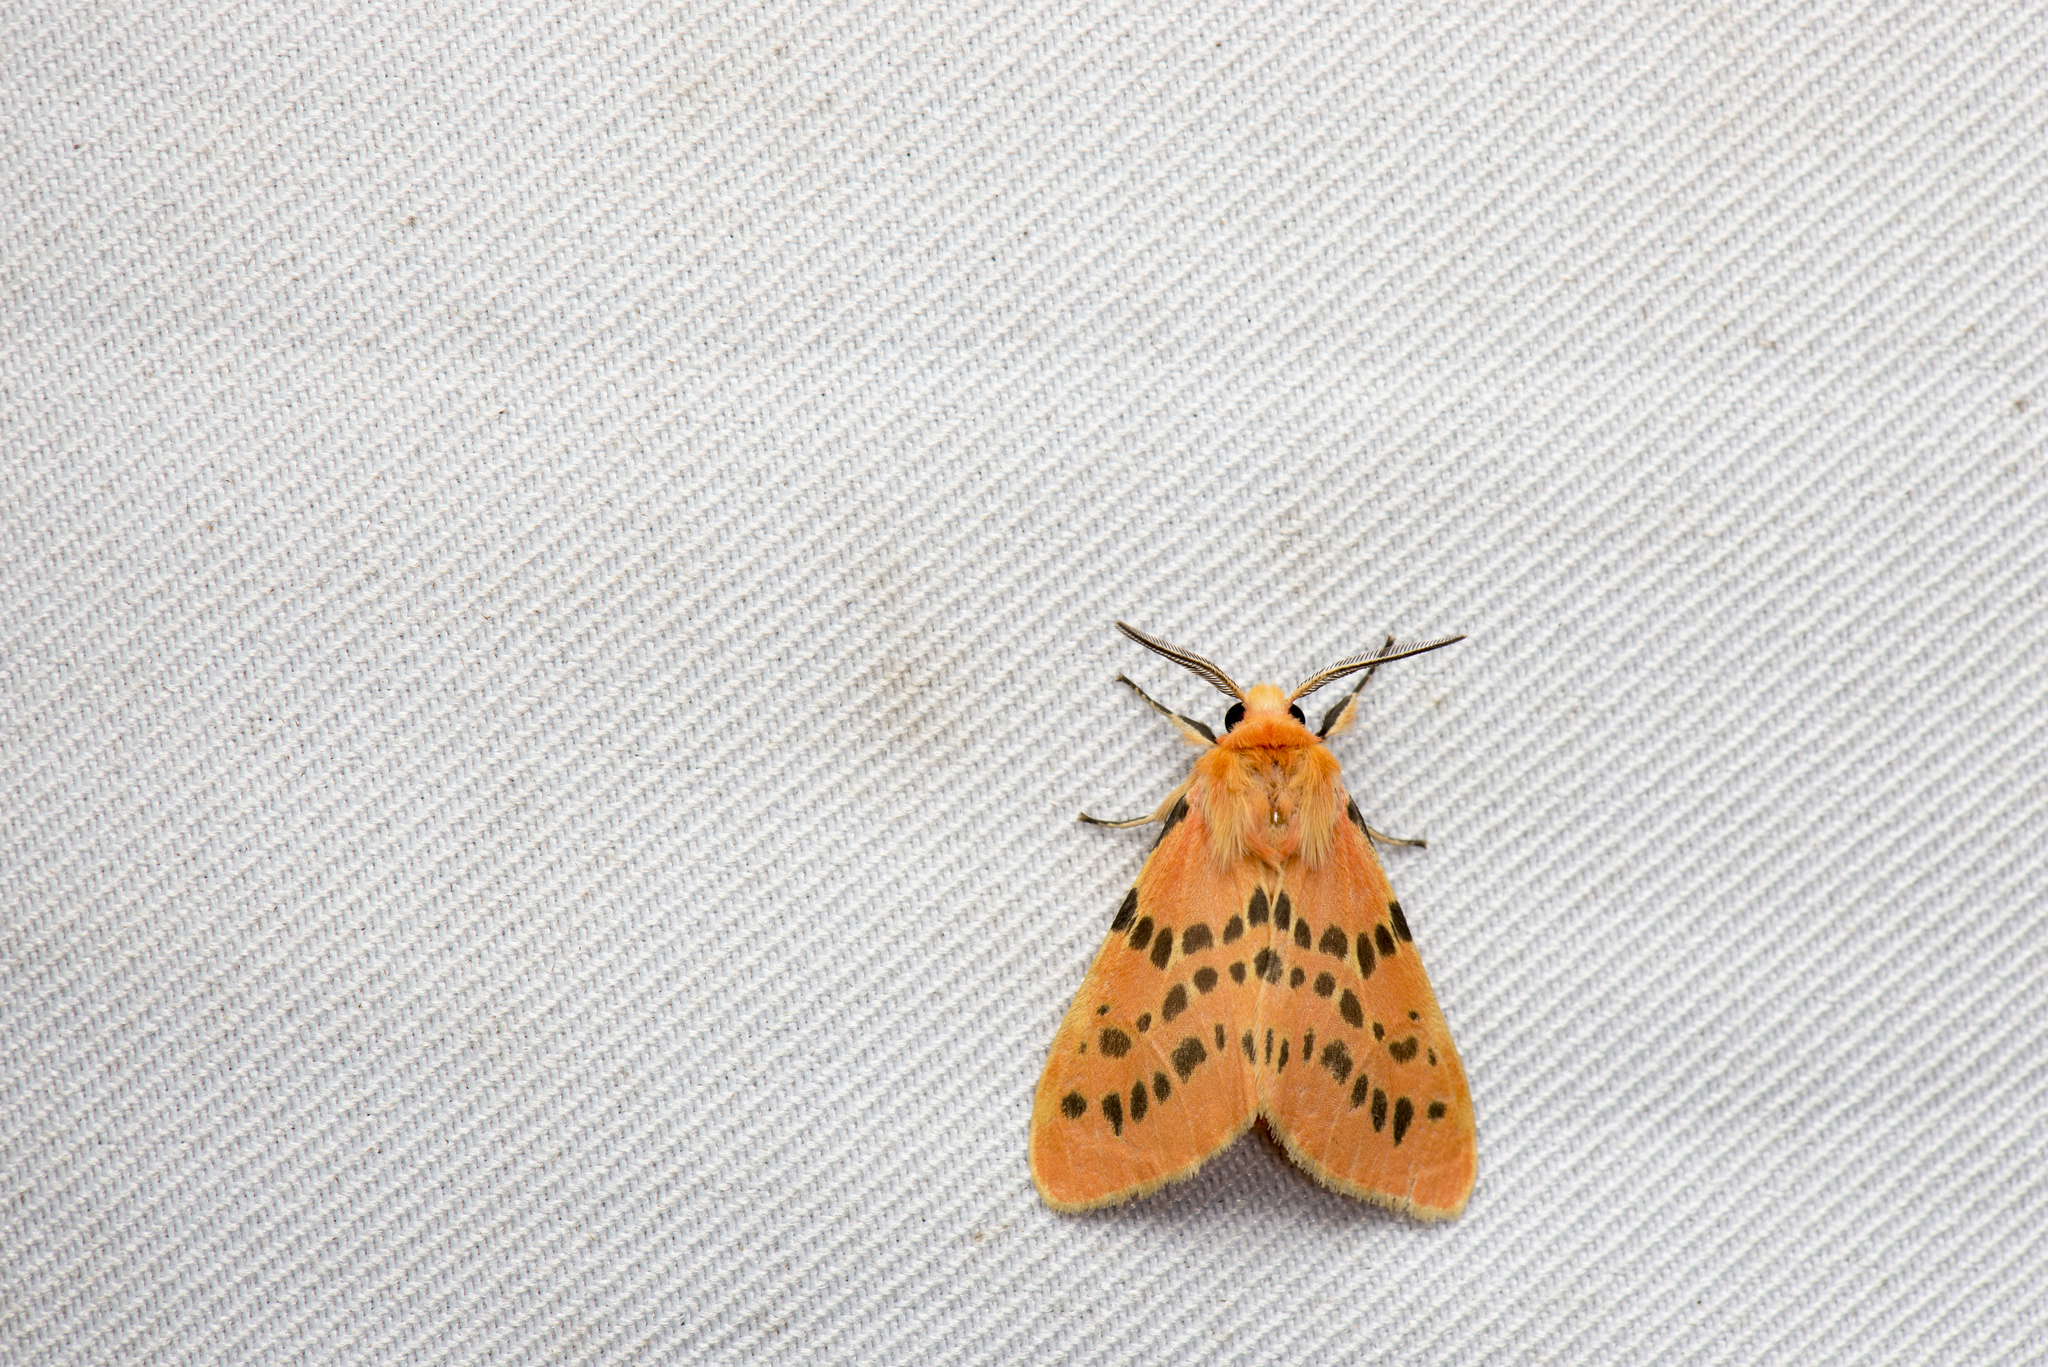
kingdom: Animalia
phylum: Arthropoda
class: Insecta
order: Lepidoptera
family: Erebidae
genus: Lemyra
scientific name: Lemyra alikangensis
